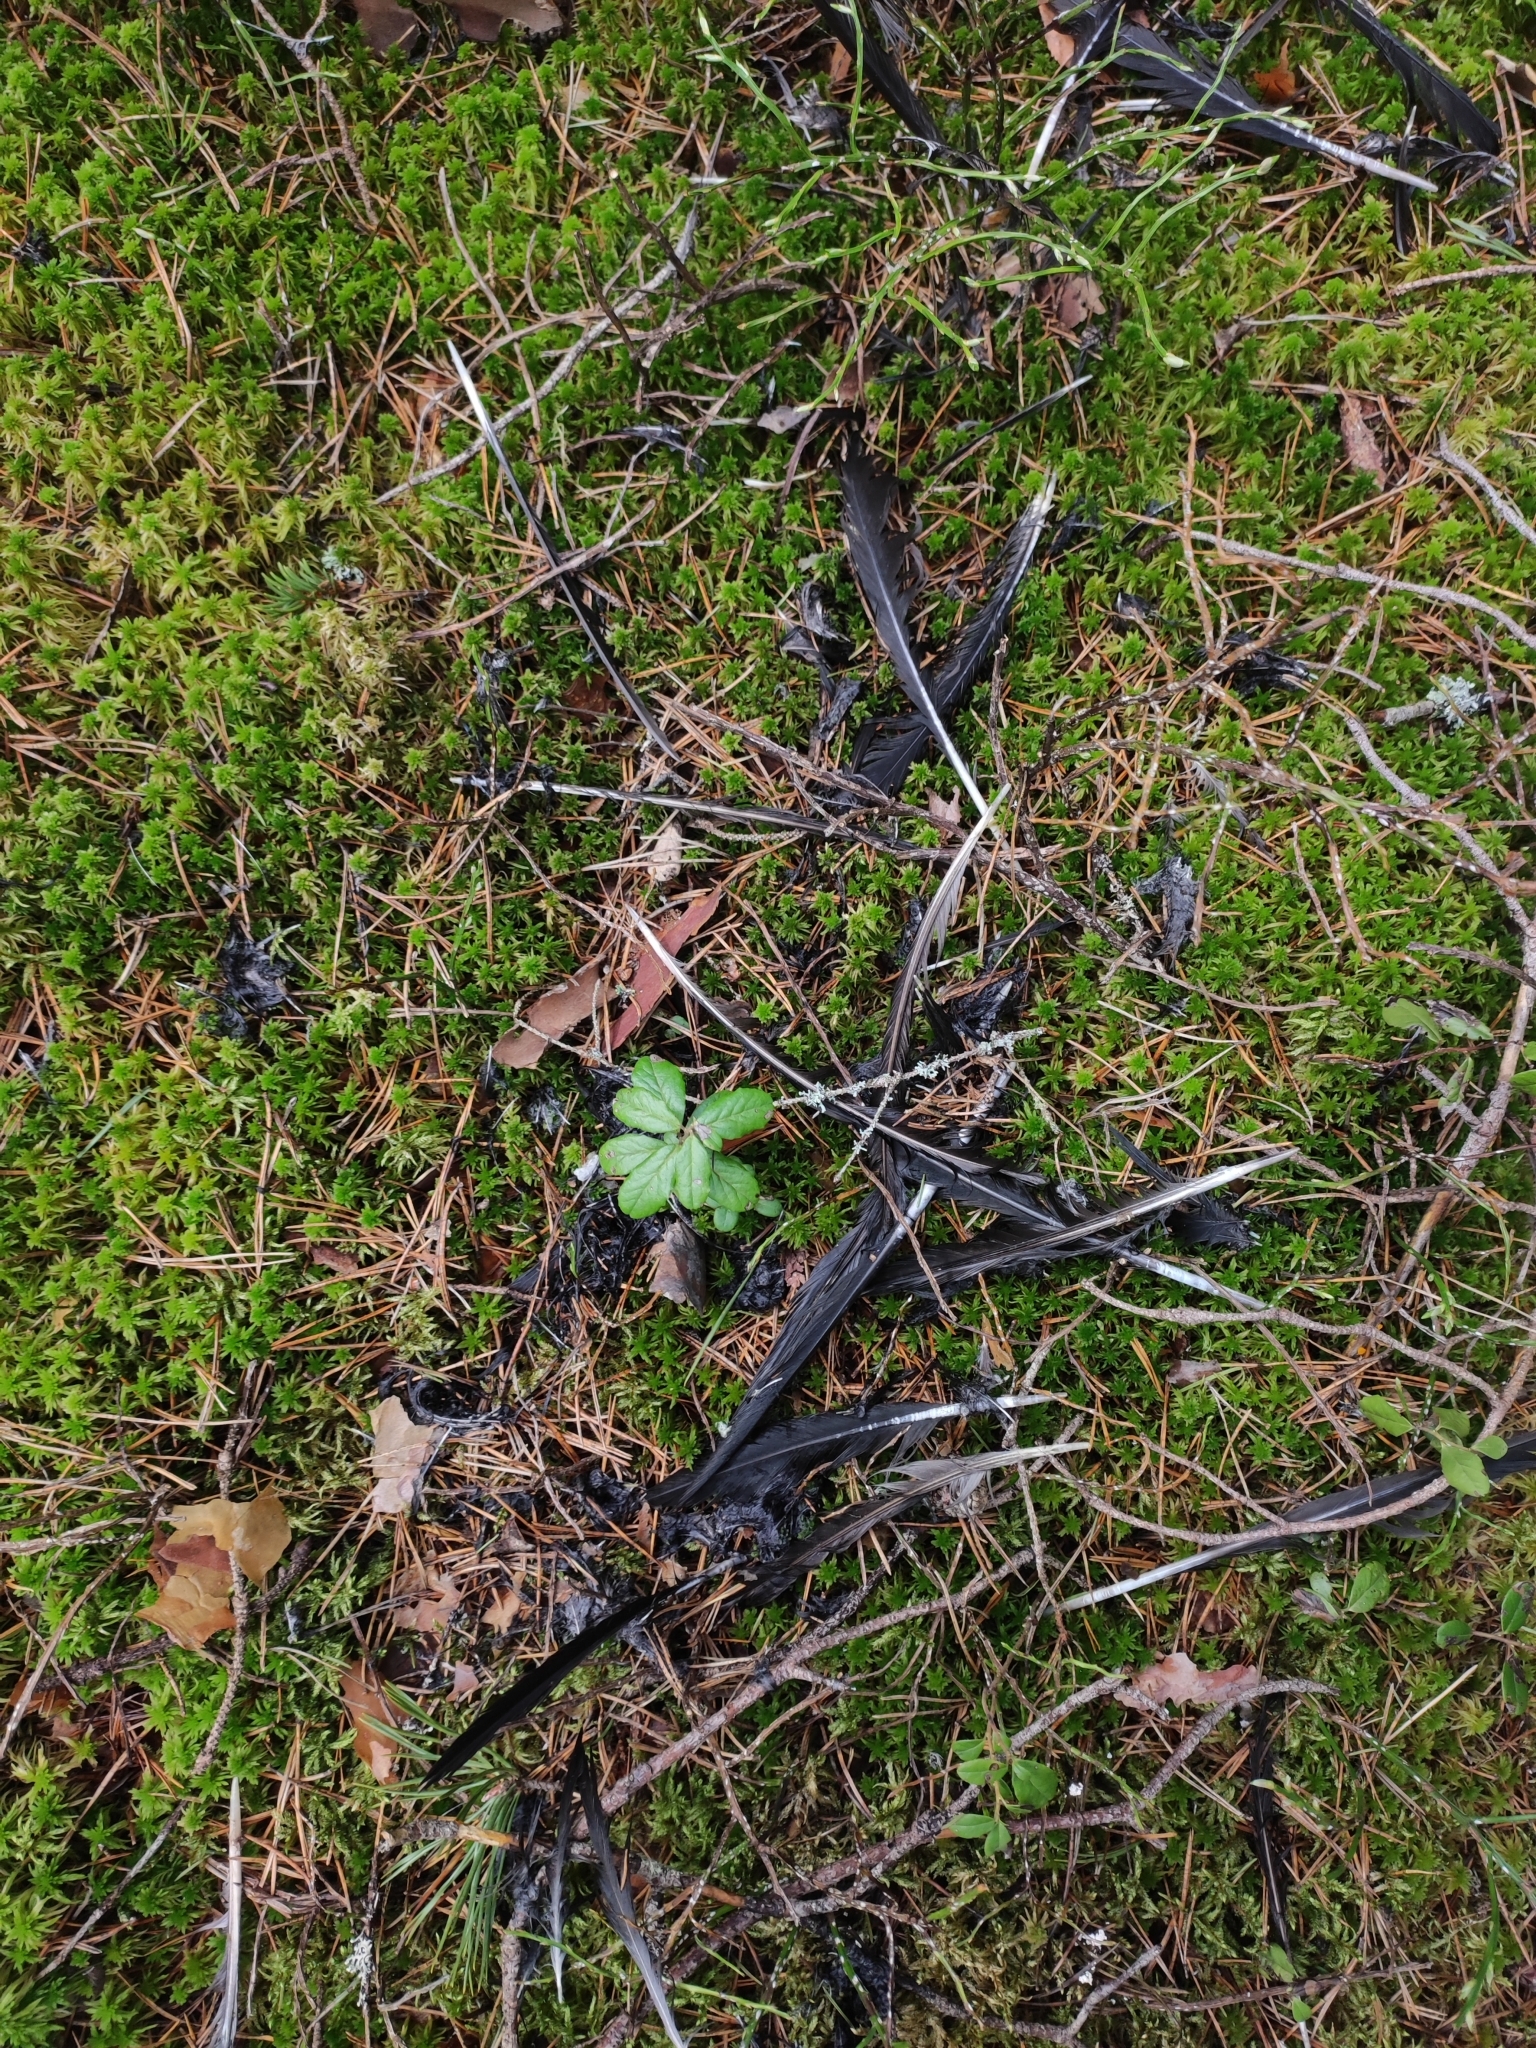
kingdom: Animalia
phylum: Chordata
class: Aves
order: Passeriformes
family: Corvidae
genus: Corvus
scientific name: Corvus corax
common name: Common raven
